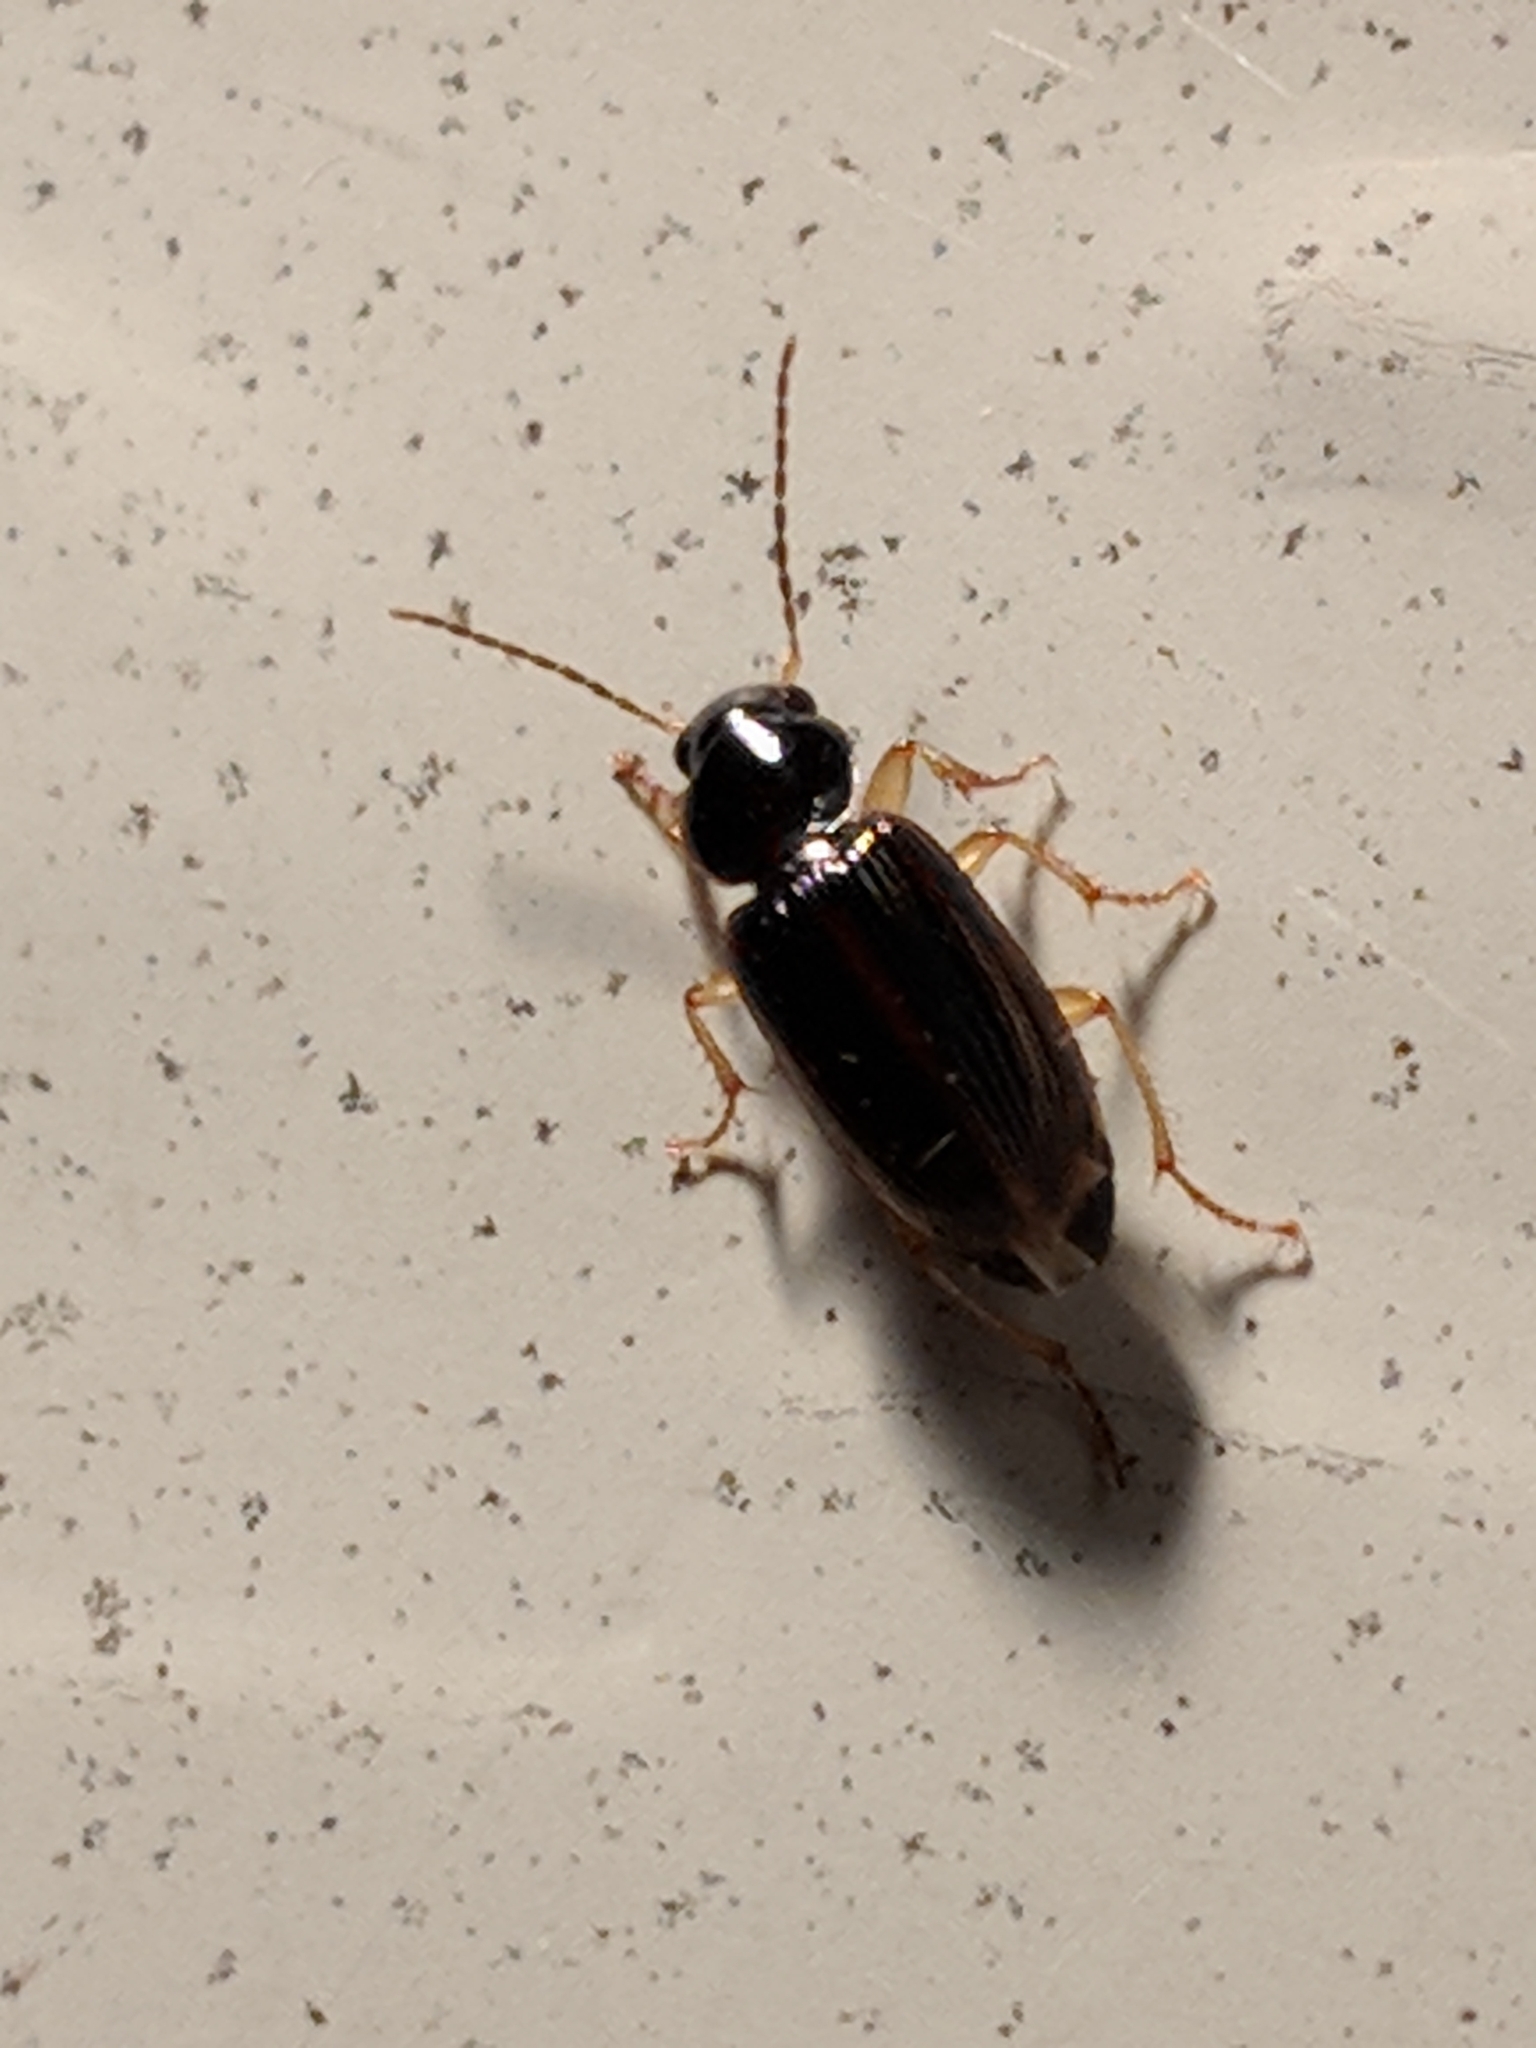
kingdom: Animalia
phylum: Arthropoda
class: Insecta
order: Coleoptera
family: Carabidae
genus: Stenolophus
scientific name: Stenolophus ochropezus
